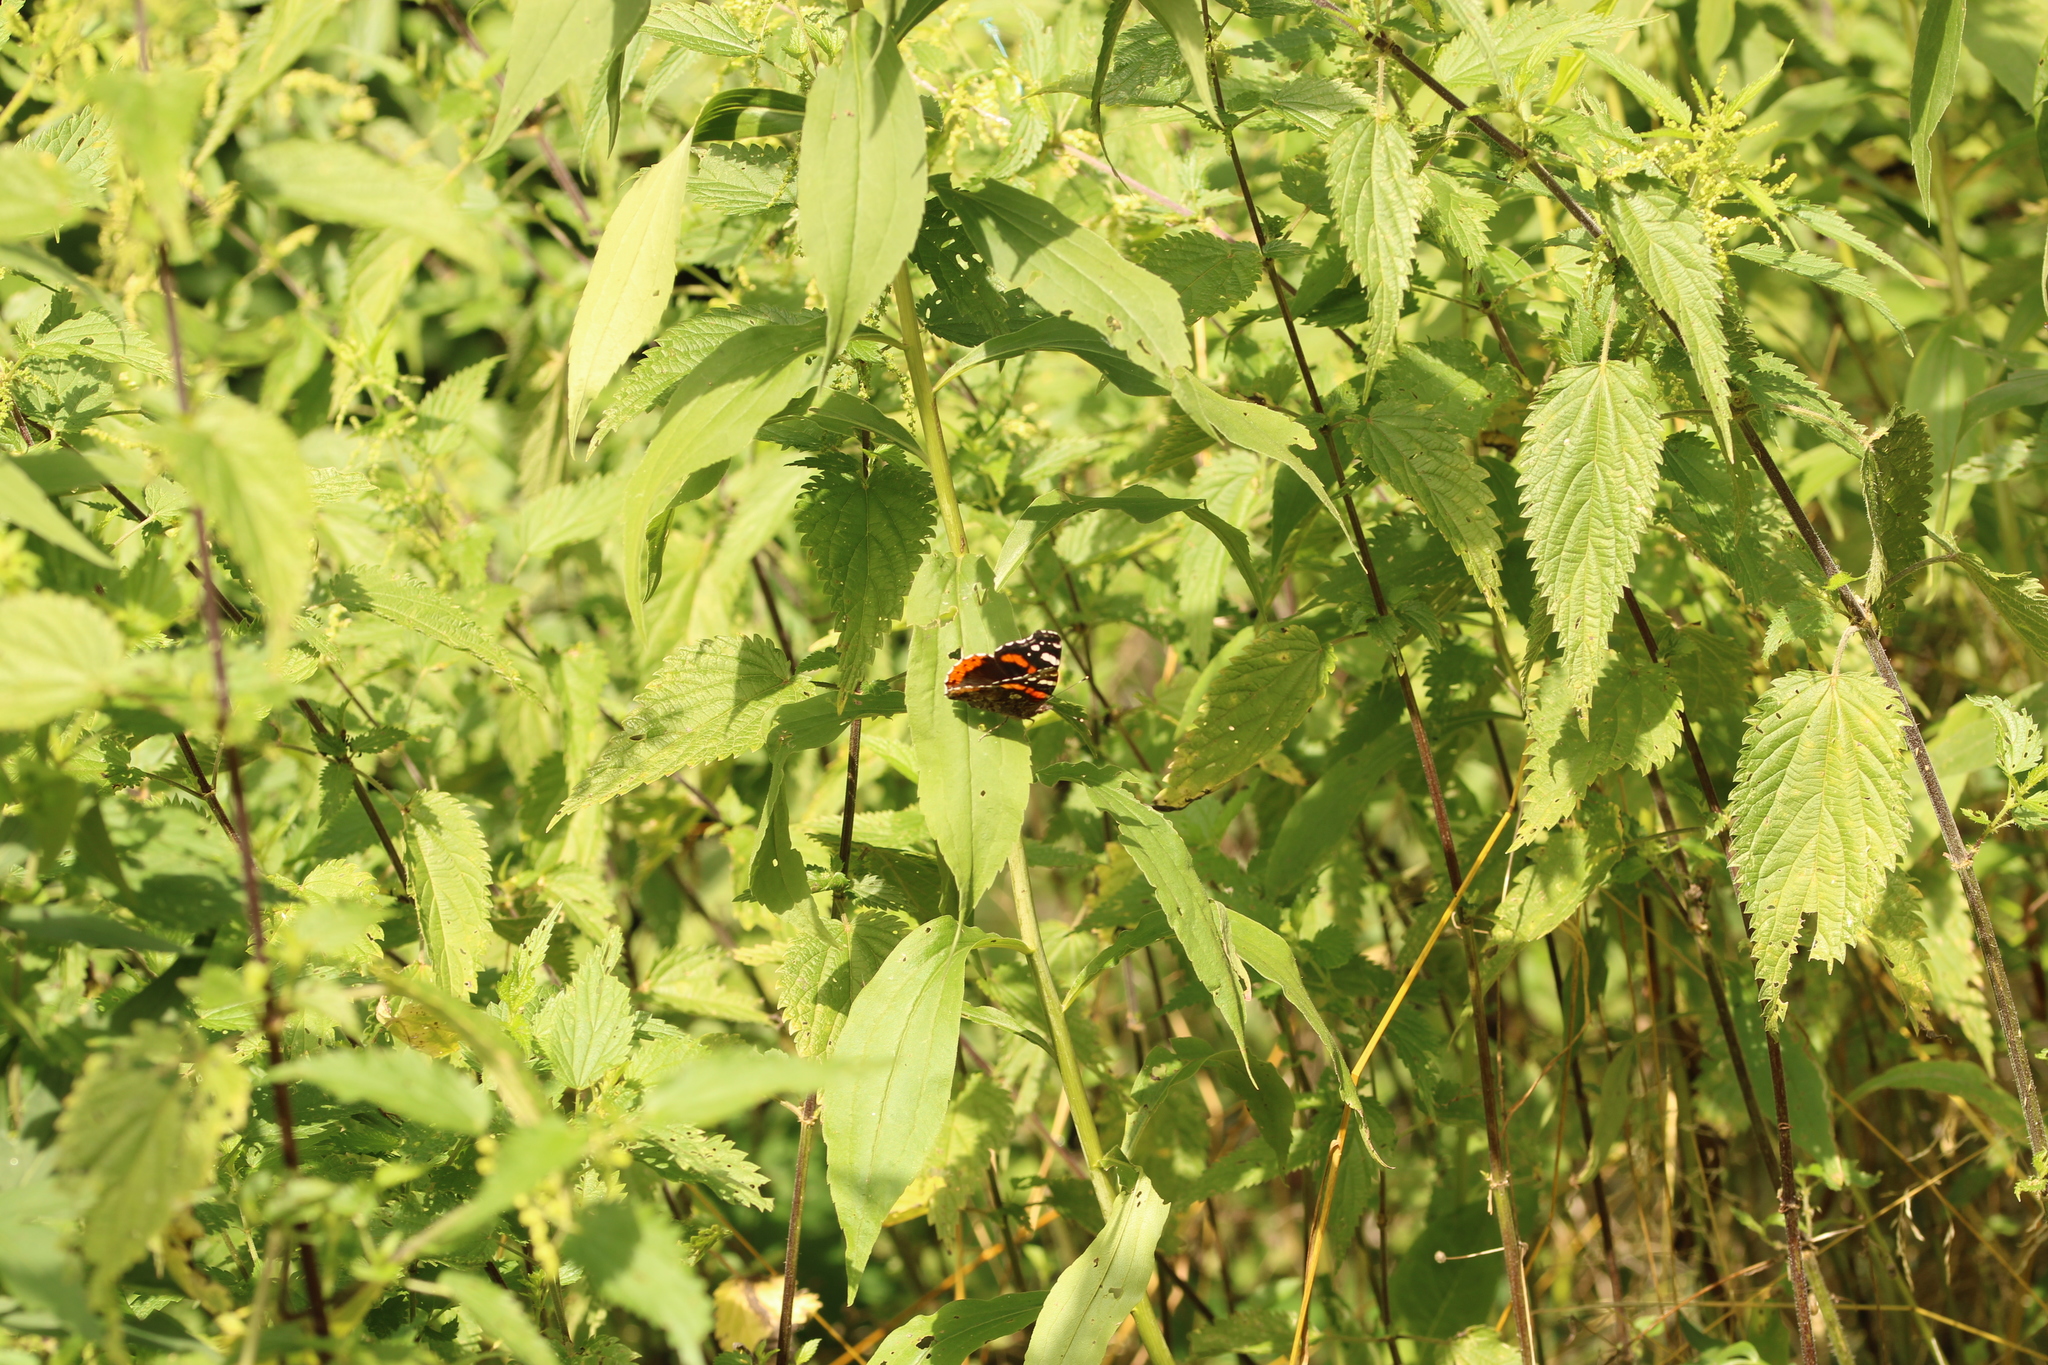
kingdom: Animalia
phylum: Arthropoda
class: Insecta
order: Lepidoptera
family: Nymphalidae
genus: Vanessa
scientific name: Vanessa atalanta
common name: Red admiral
